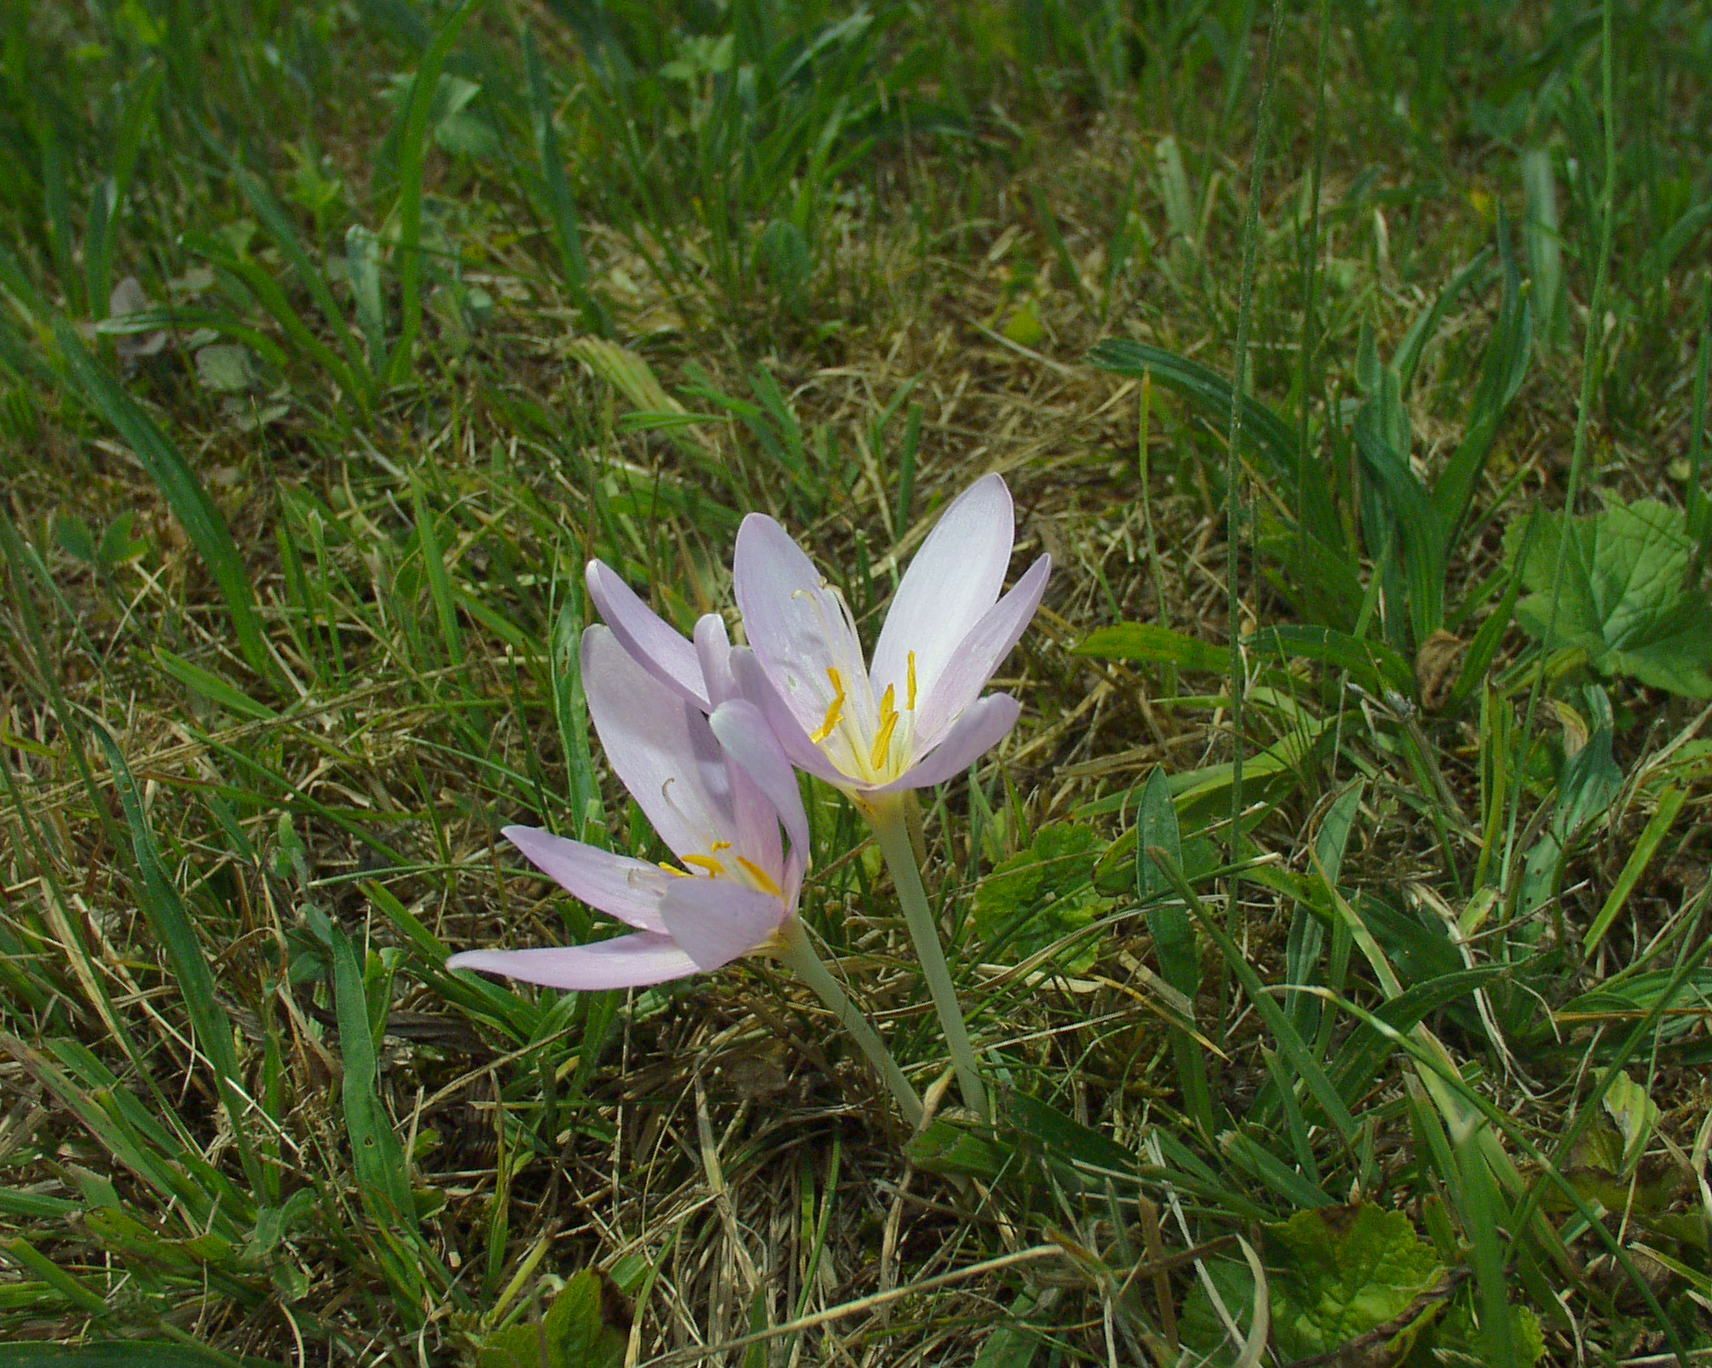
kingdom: Plantae
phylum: Tracheophyta
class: Liliopsida
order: Liliales
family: Colchicaceae
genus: Colchicum
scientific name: Colchicum autumnale
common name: Autumn crocus
